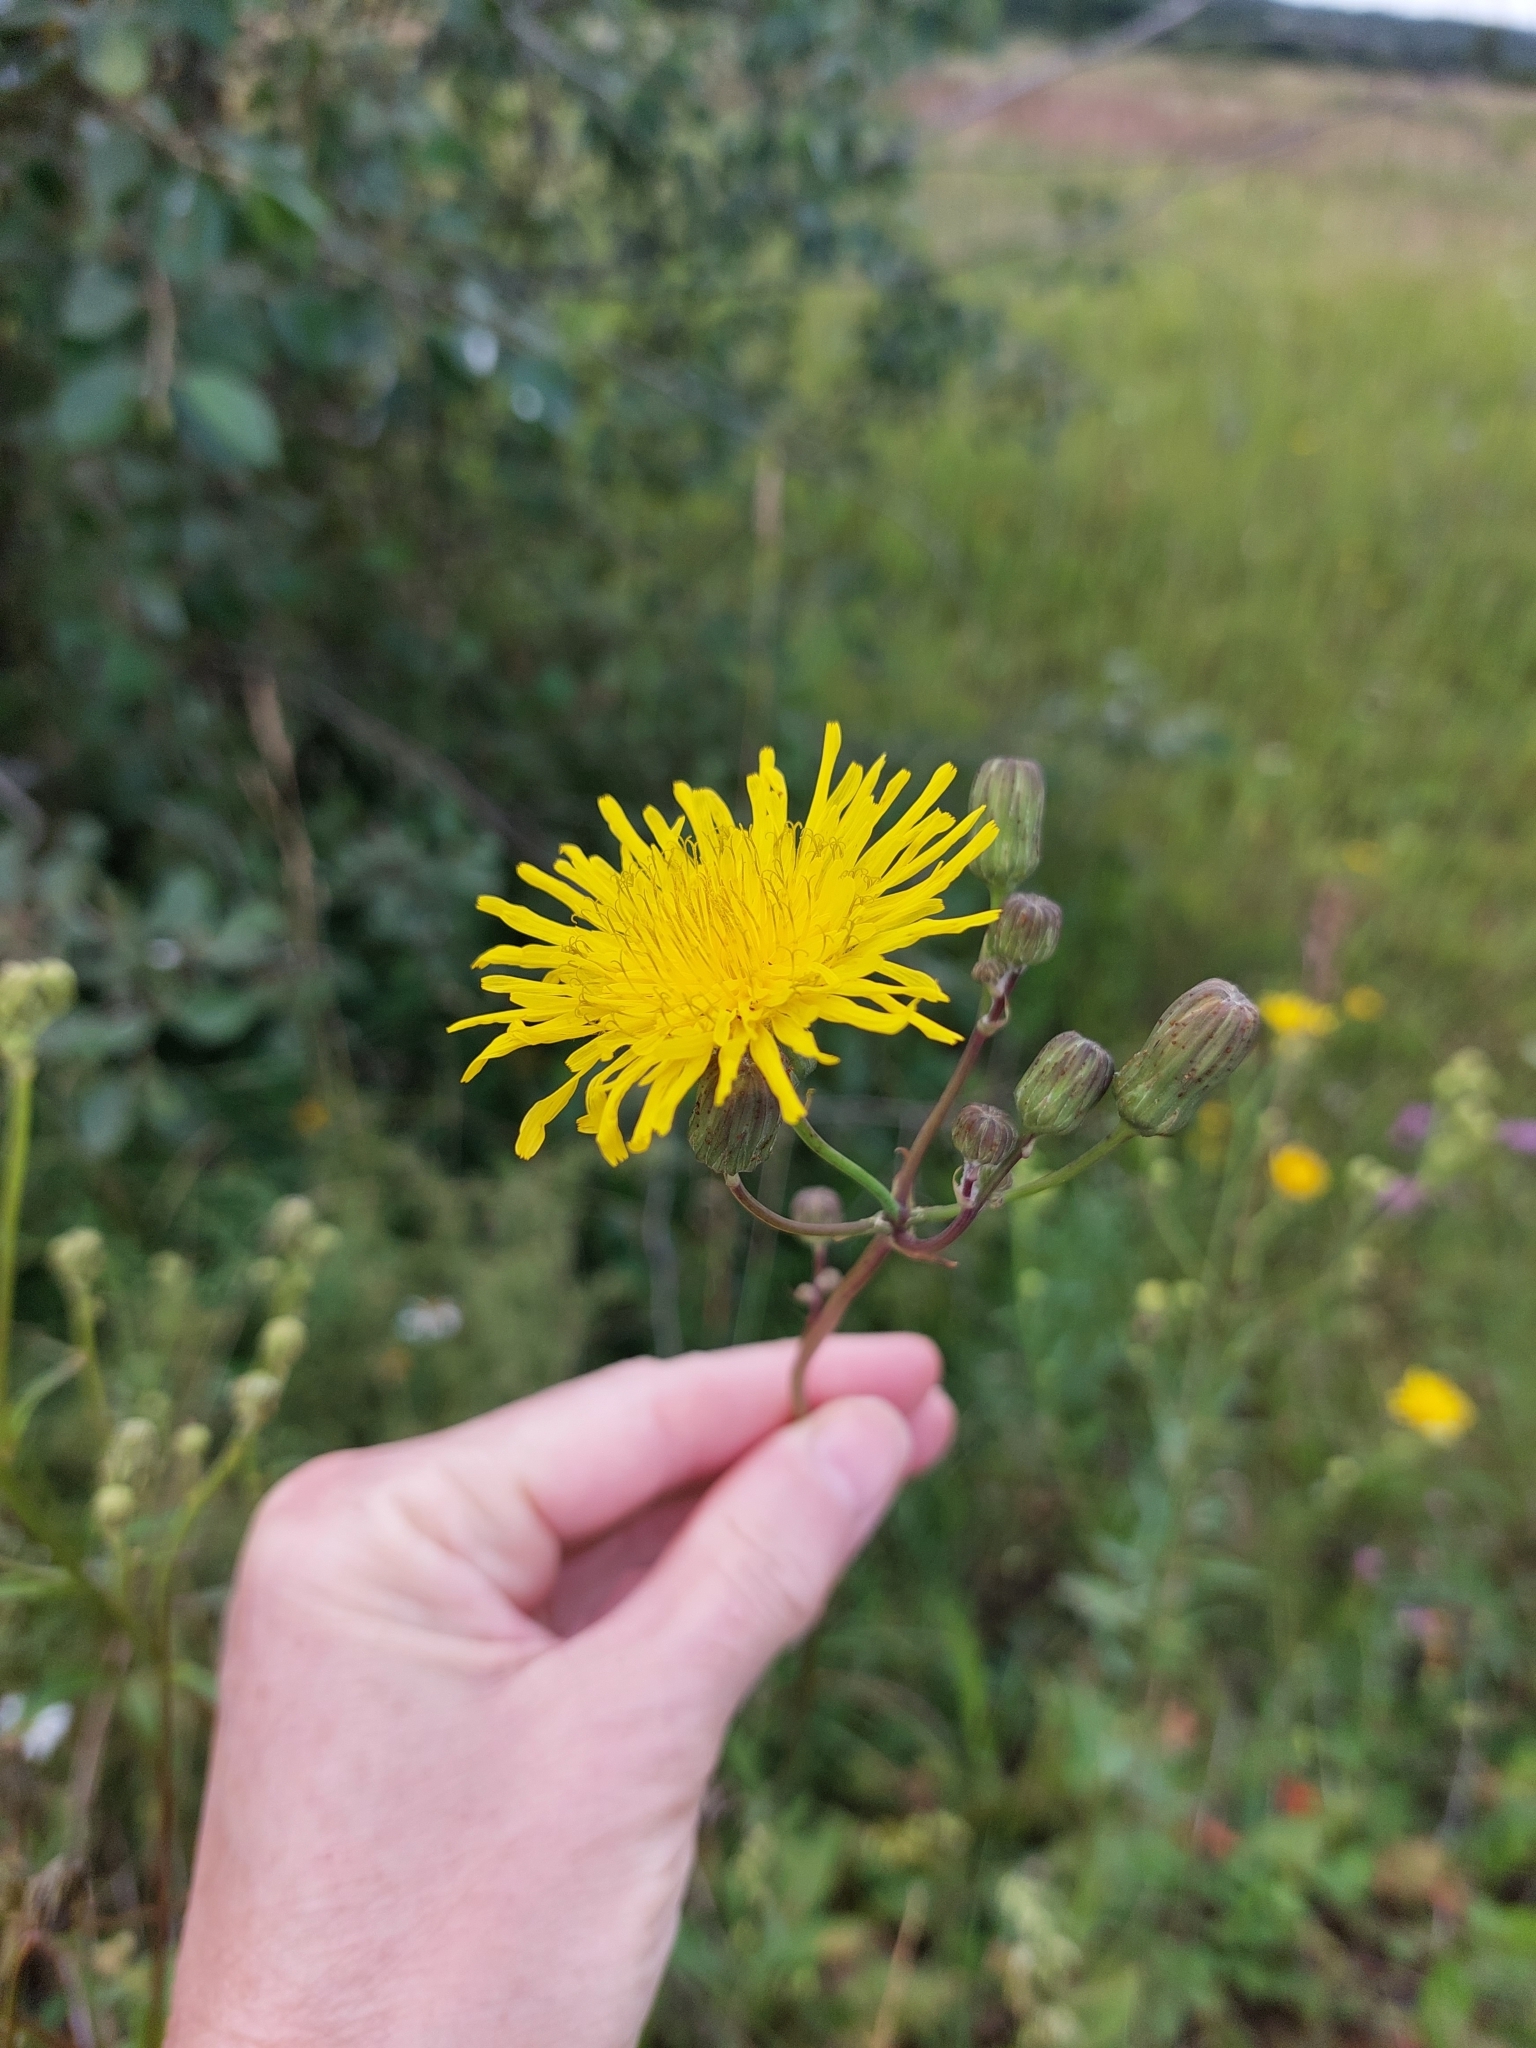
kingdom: Plantae
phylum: Tracheophyta
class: Magnoliopsida
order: Asterales
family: Asteraceae
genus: Sonchus
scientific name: Sonchus arvensis
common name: Perennial sow-thistle
